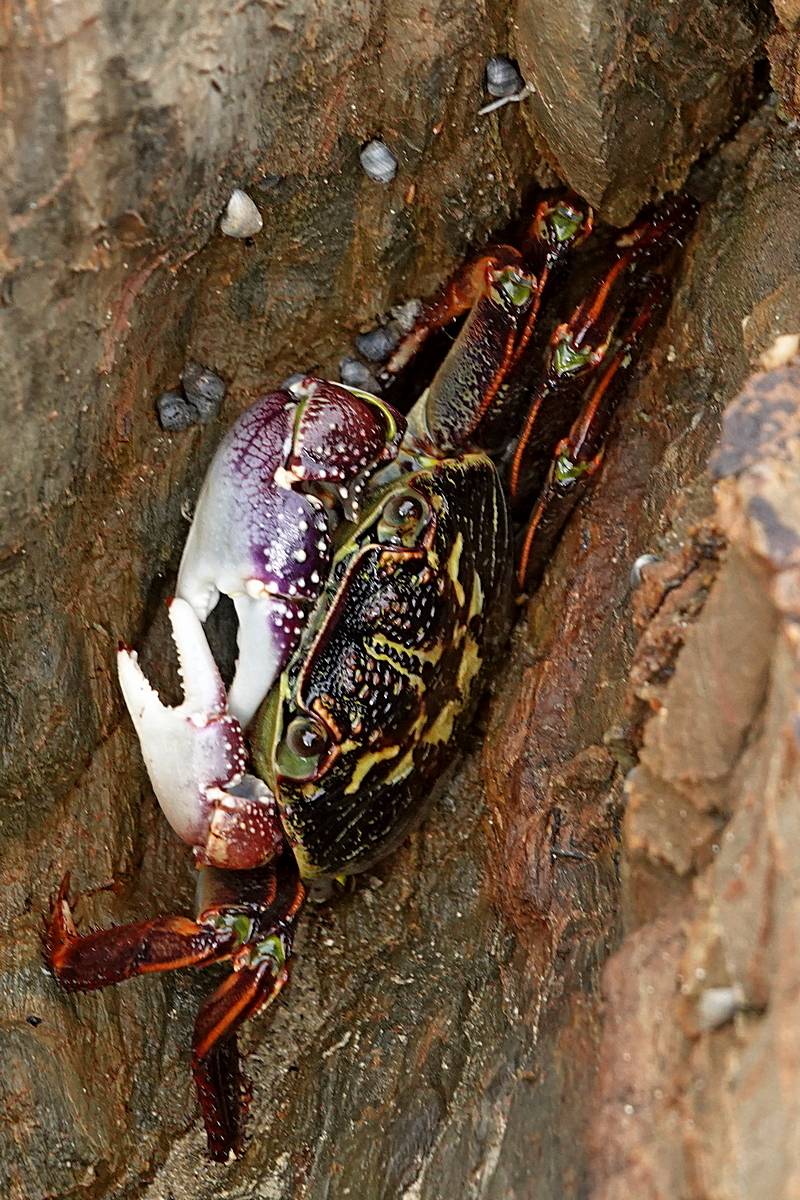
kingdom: Animalia
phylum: Arthropoda
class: Malacostraca
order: Decapoda
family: Grapsidae
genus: Leptograpsus
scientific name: Leptograpsus variegatus
